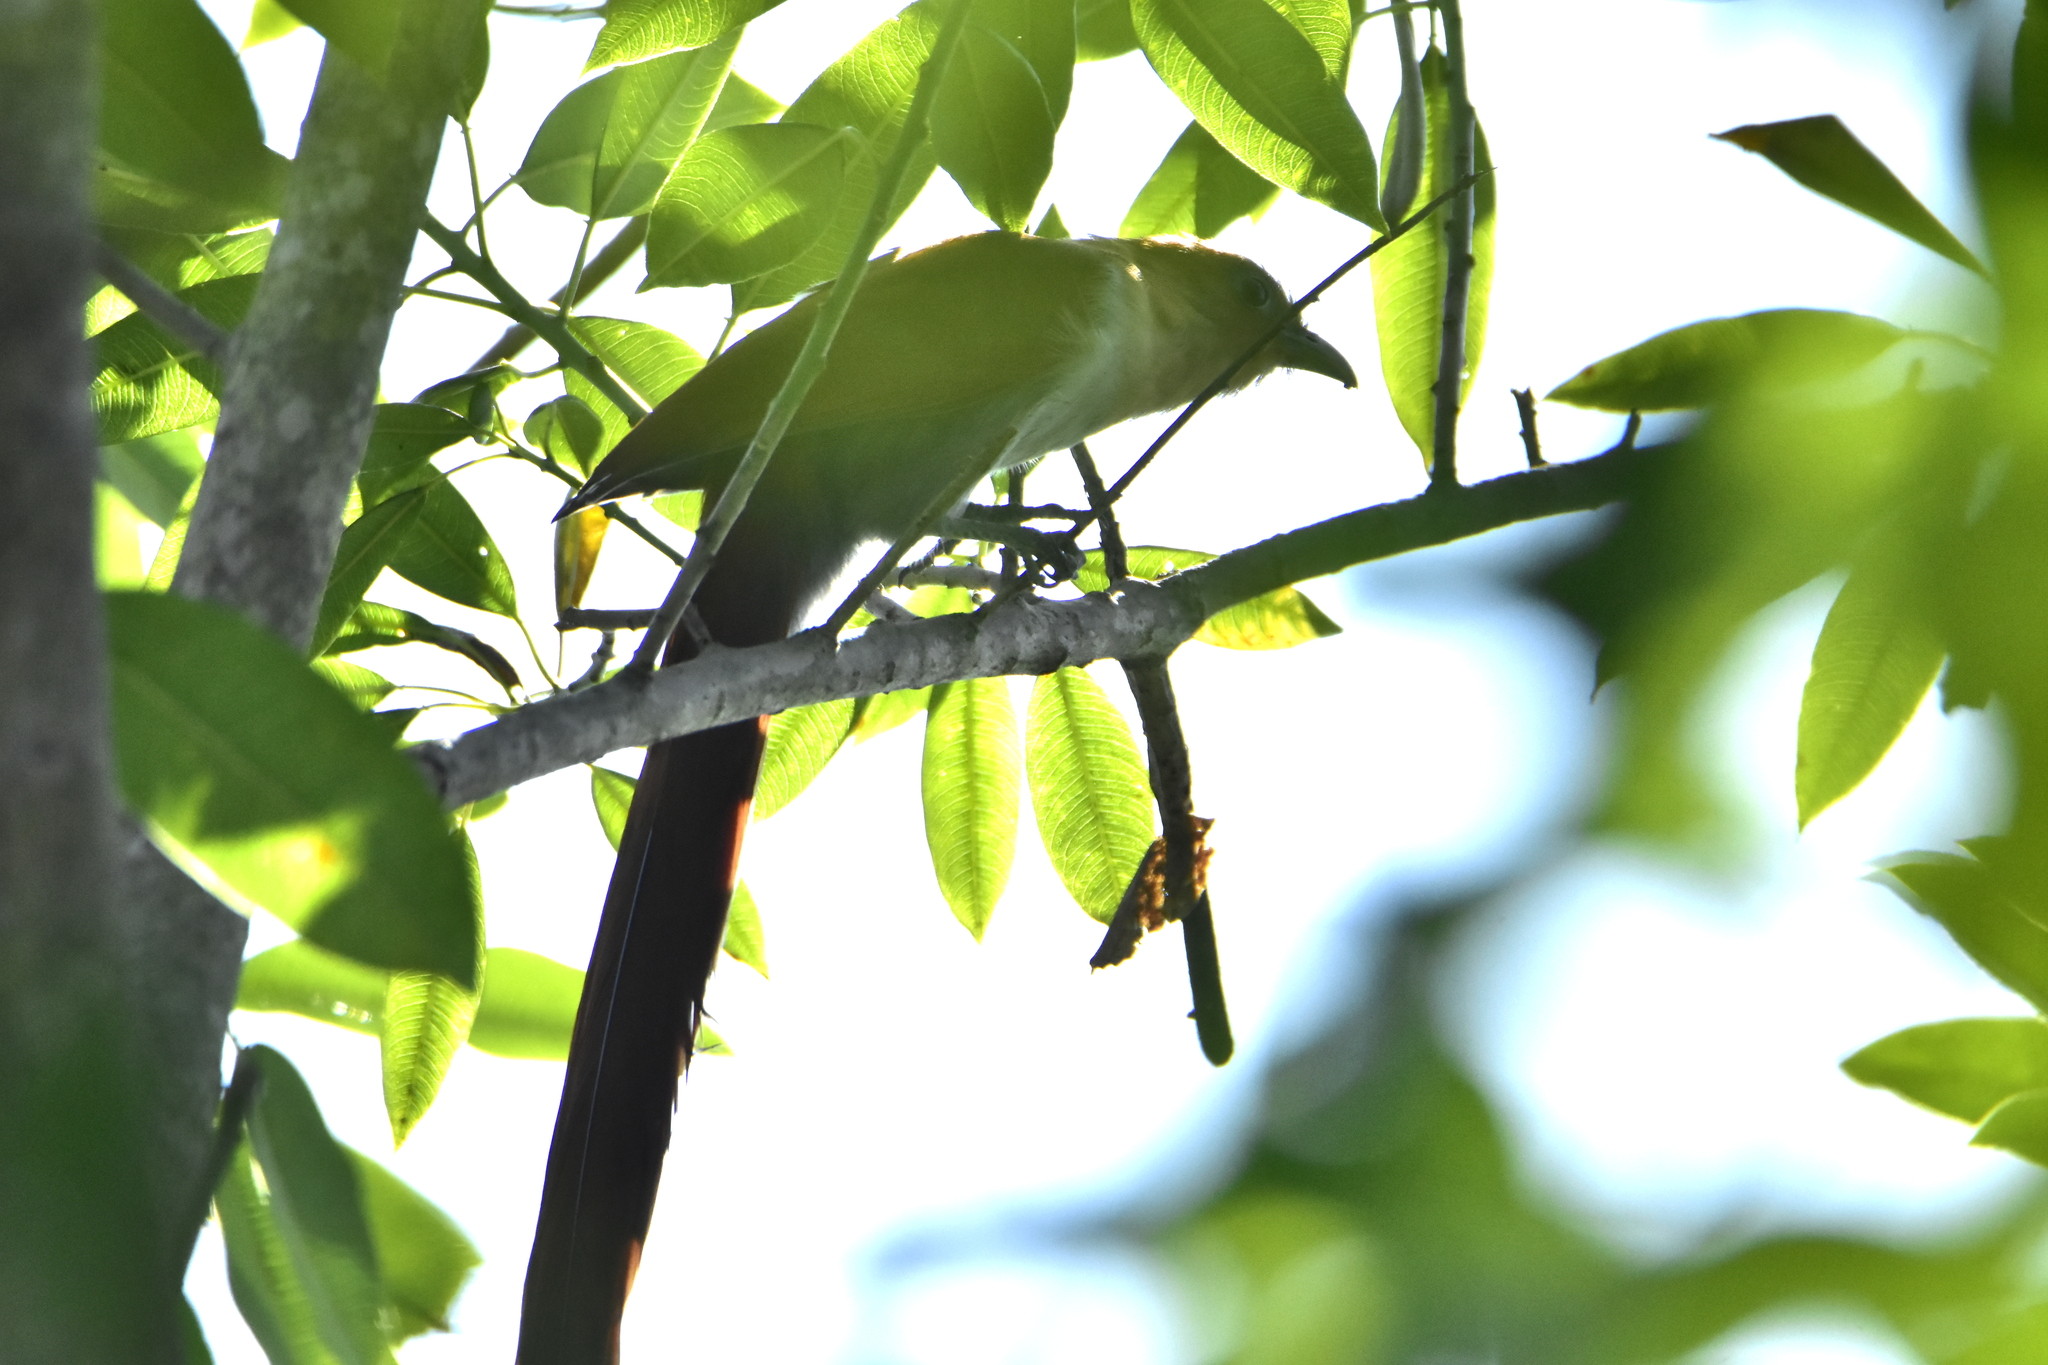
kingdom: Animalia
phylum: Chordata
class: Aves
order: Cuculiformes
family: Cuculidae
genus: Piaya
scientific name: Piaya cayana
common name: Squirrel cuckoo
